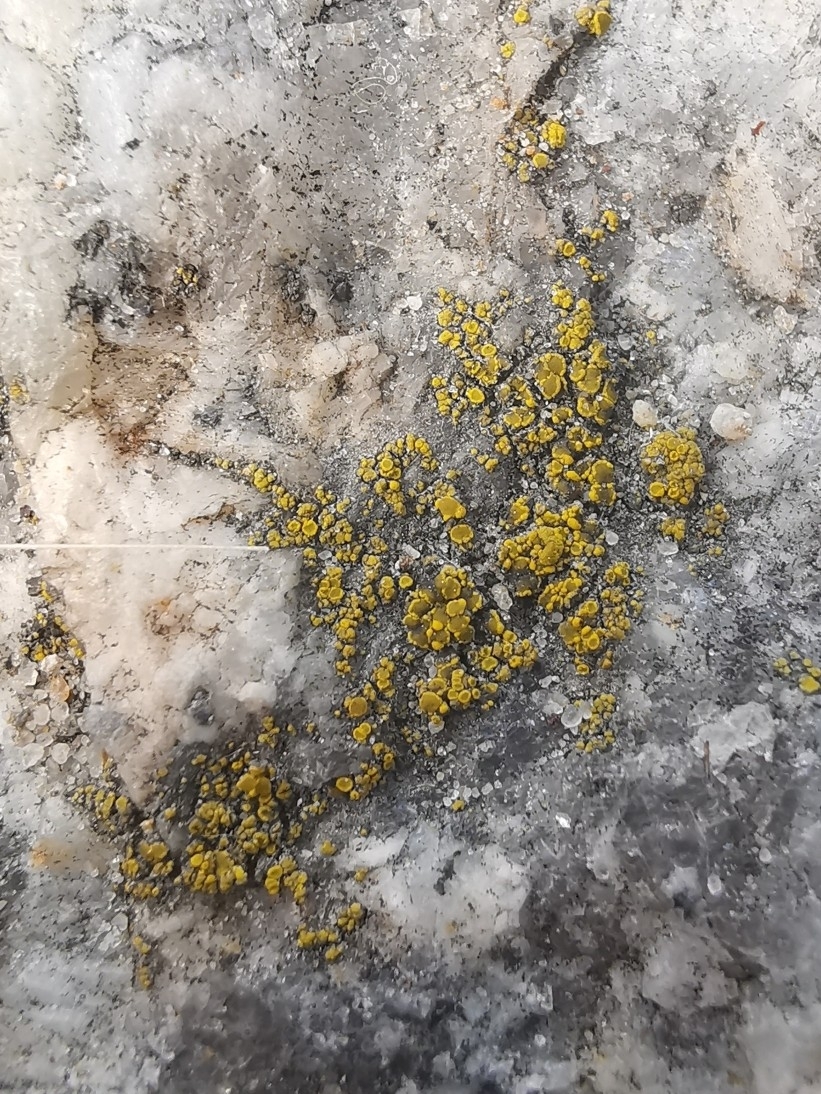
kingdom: Fungi
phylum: Ascomycota
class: Candelariomycetes
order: Candelariales
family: Candelariaceae
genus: Candelariella
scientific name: Candelariella aurella
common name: Hidden goldspeck lichen
